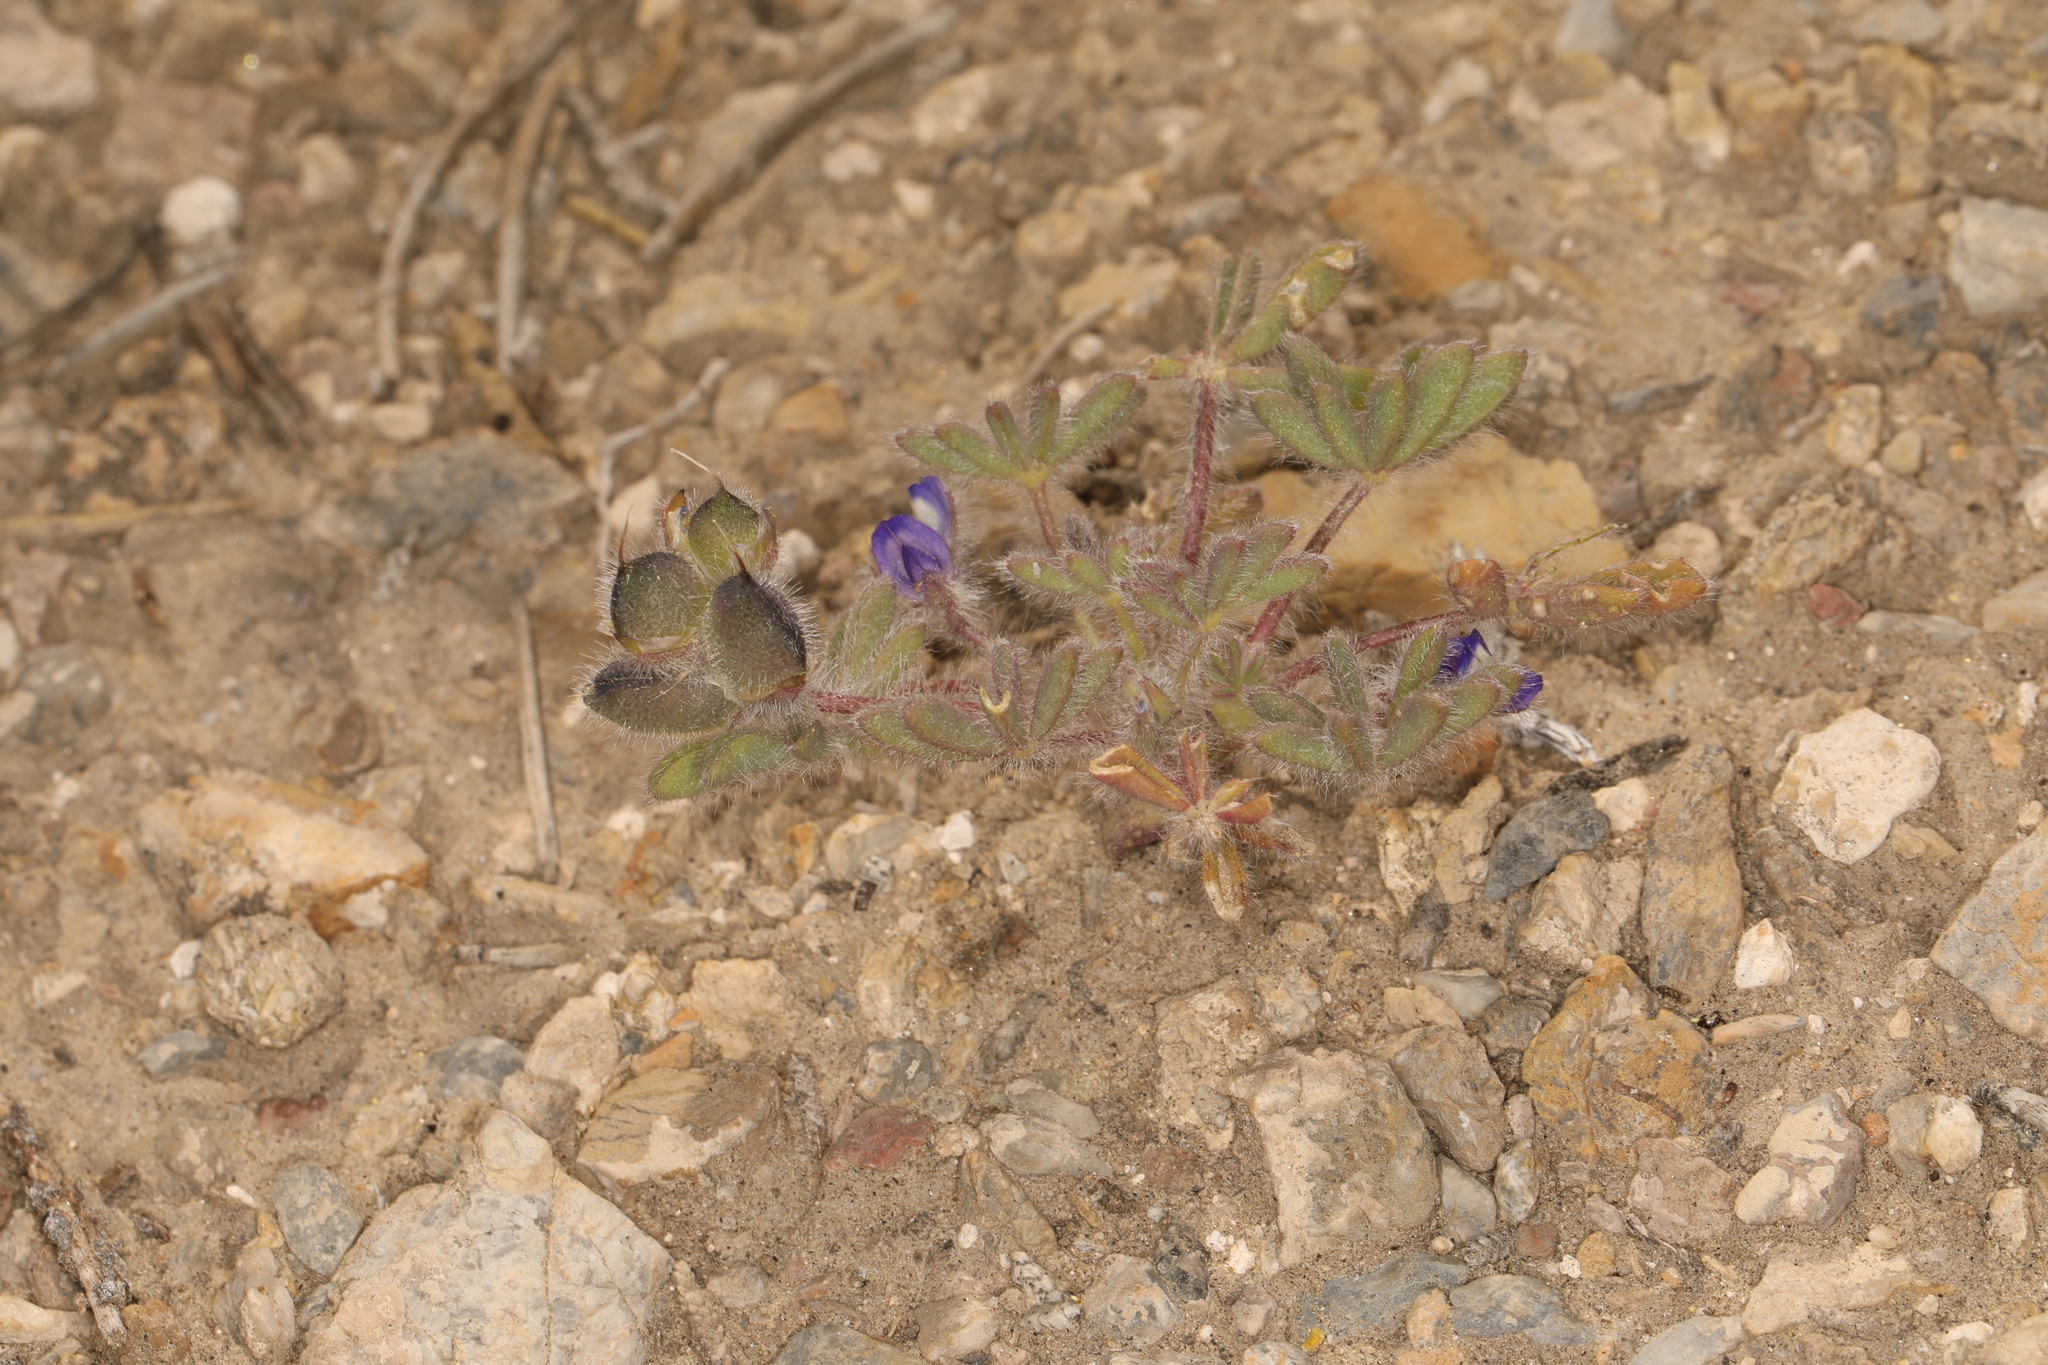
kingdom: Plantae
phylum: Tracheophyta
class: Magnoliopsida
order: Fabales
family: Fabaceae
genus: Lupinus
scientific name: Lupinus brevicaulis
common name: Sand lupine
